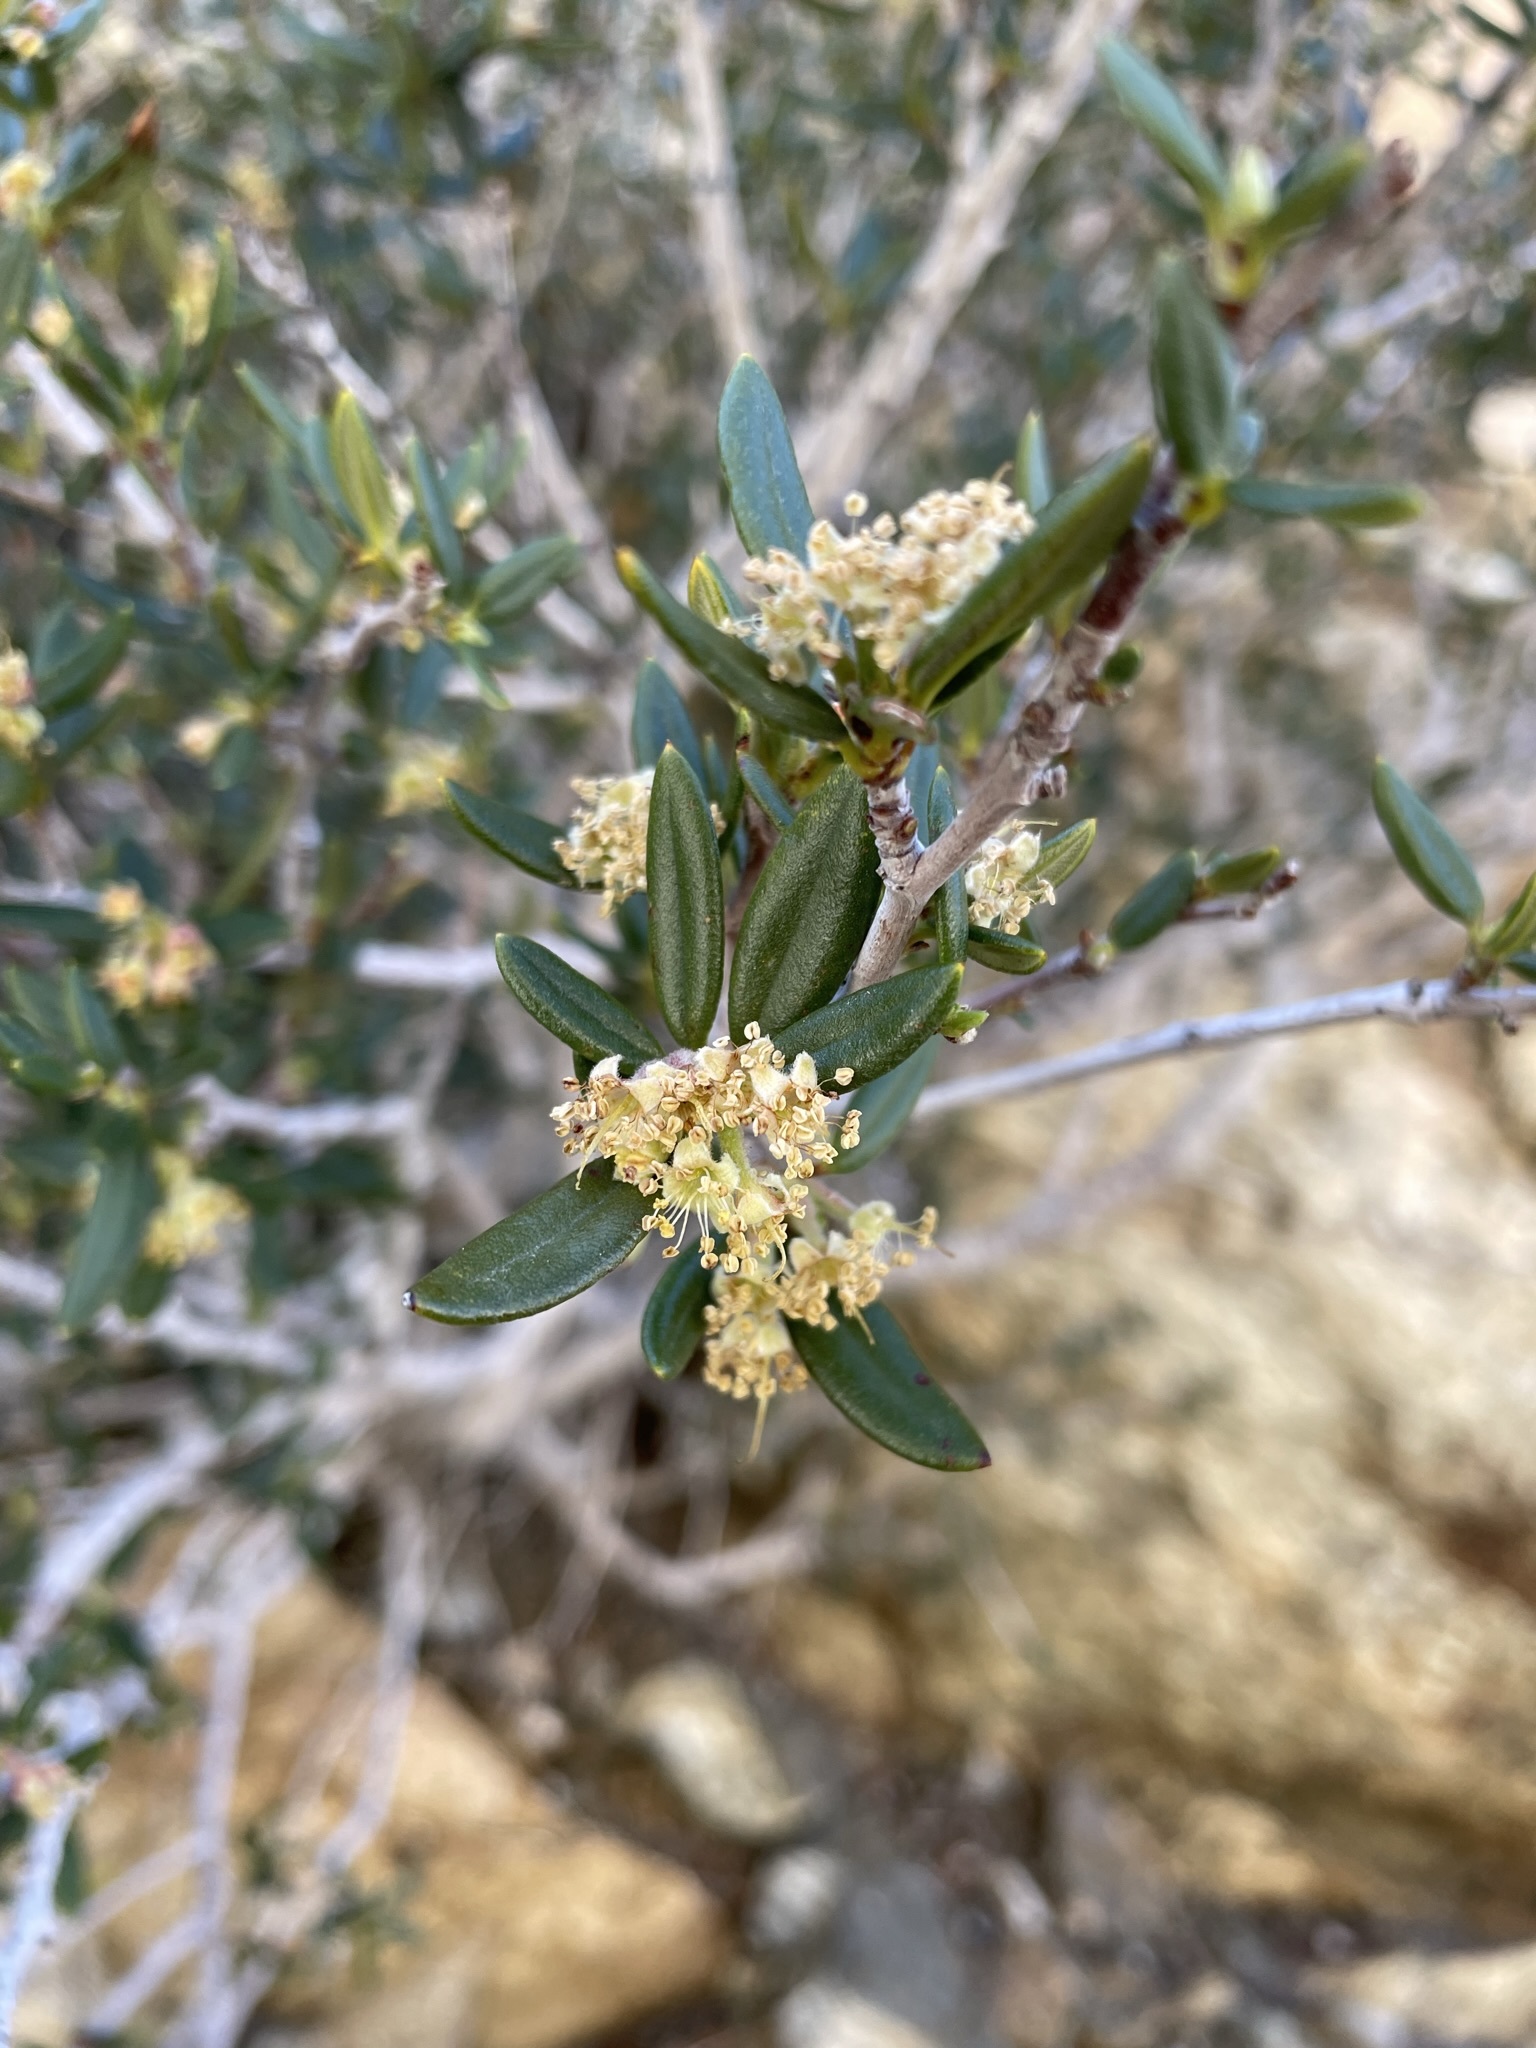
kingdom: Plantae
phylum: Tracheophyta
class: Magnoliopsida
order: Rosales
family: Rosaceae
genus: Cercocarpus
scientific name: Cercocarpus ledifolius
